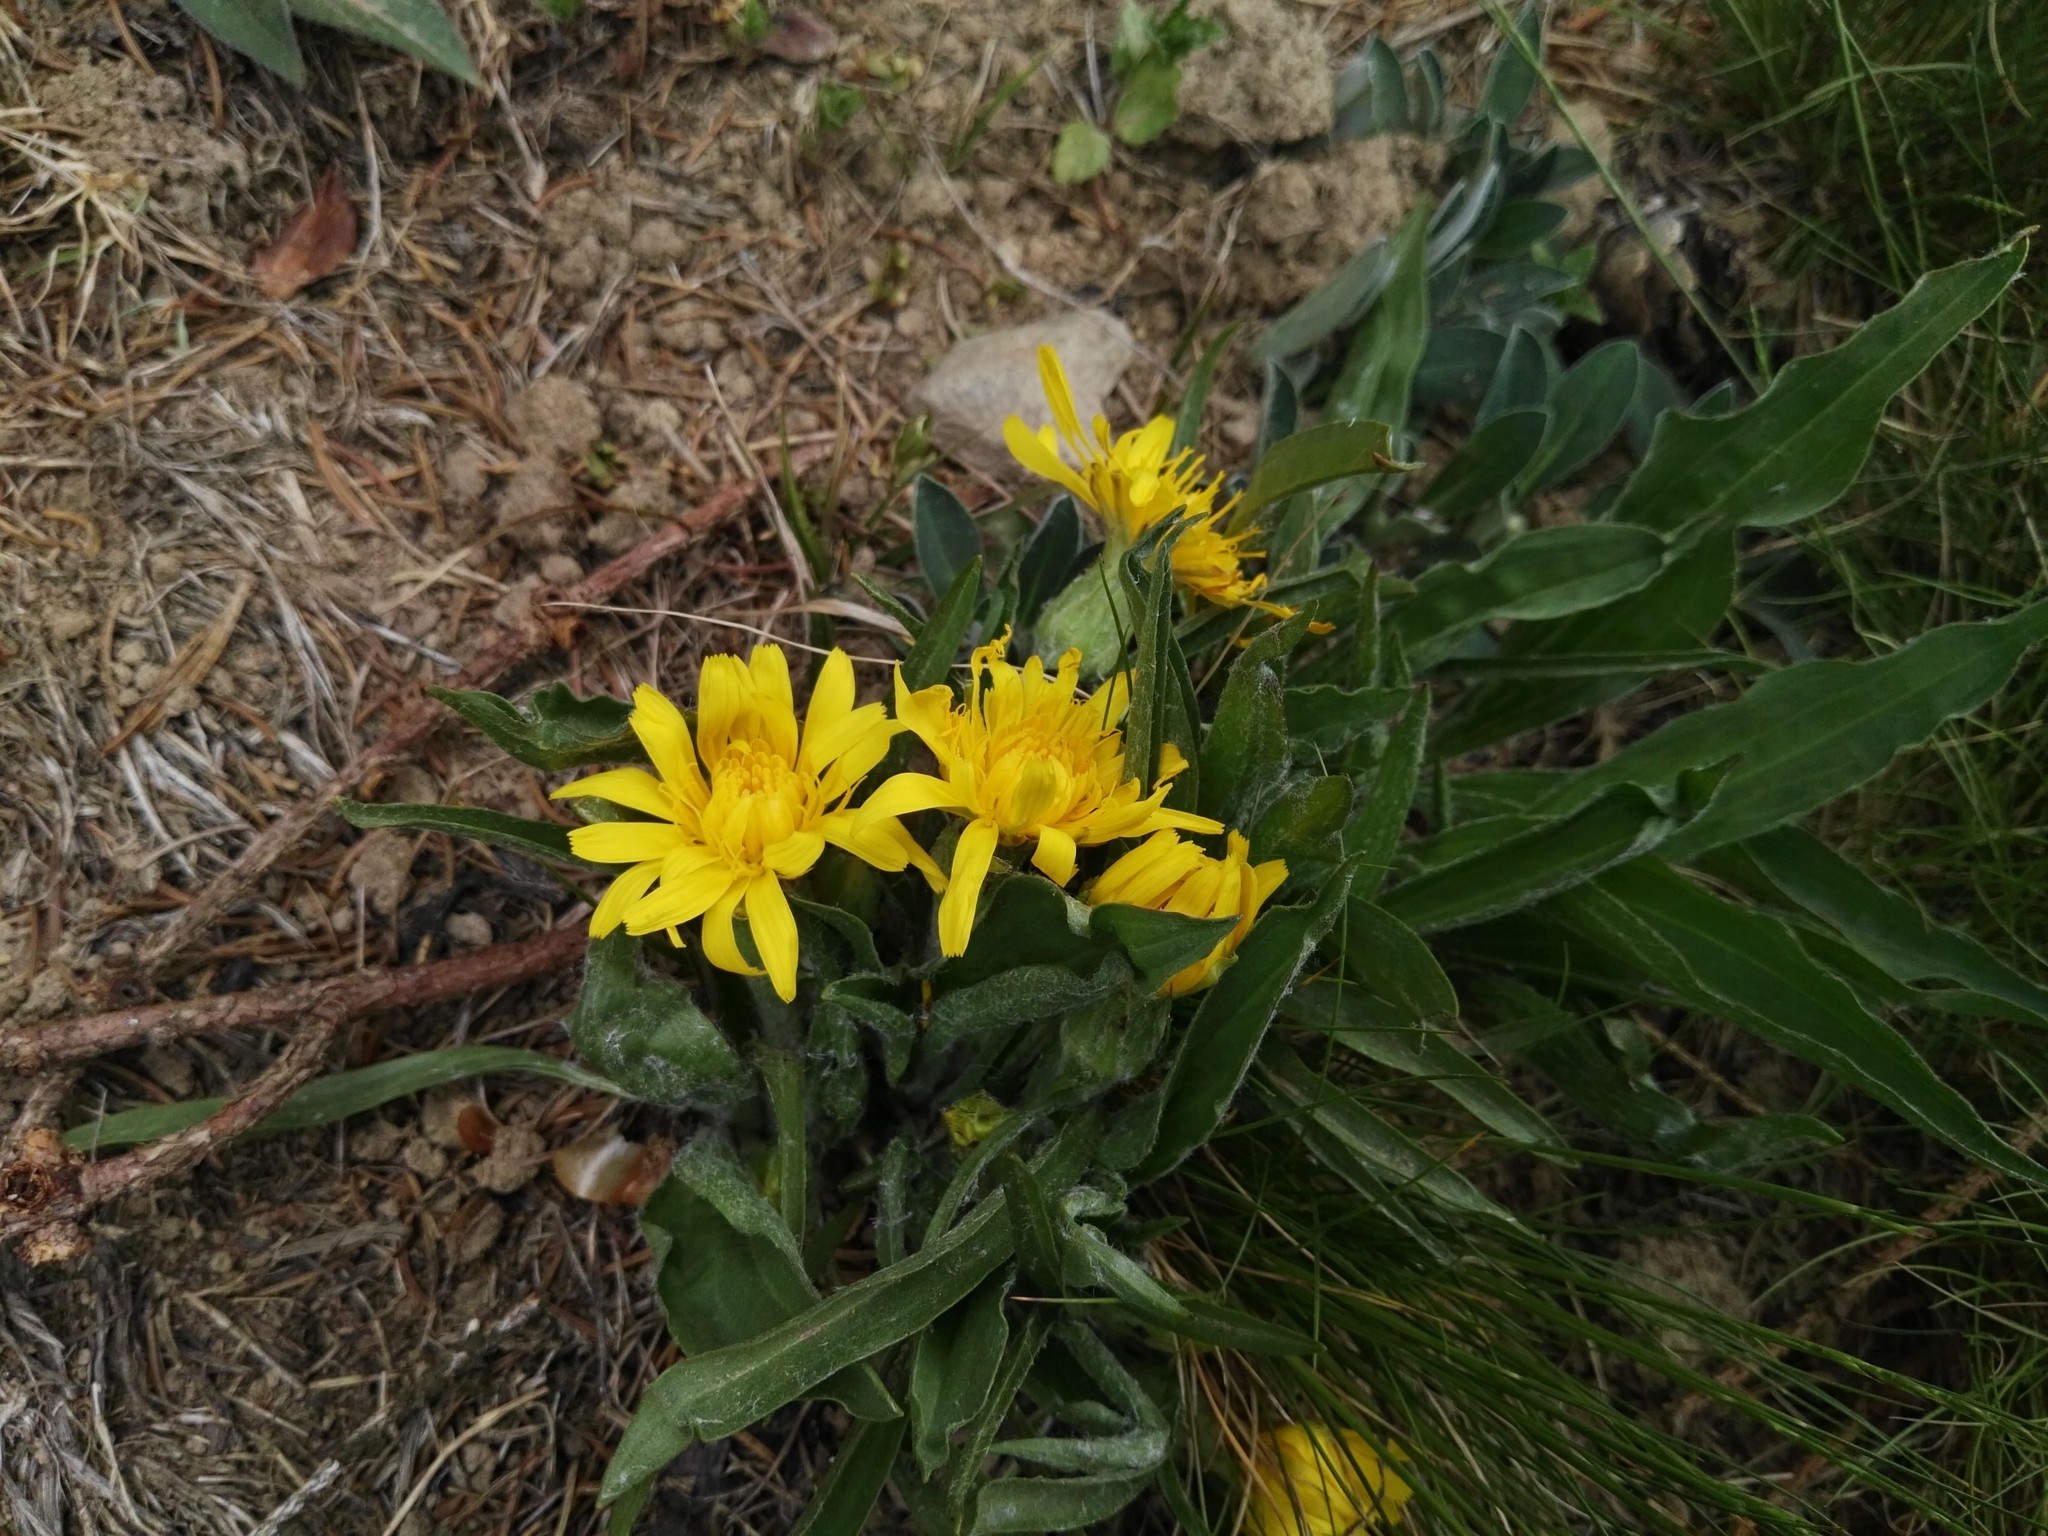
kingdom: Plantae
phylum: Tracheophyta
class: Magnoliopsida
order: Asterales
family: Asteraceae
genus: Scorzonera
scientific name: Scorzonera humilis
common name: Viper's-grass
